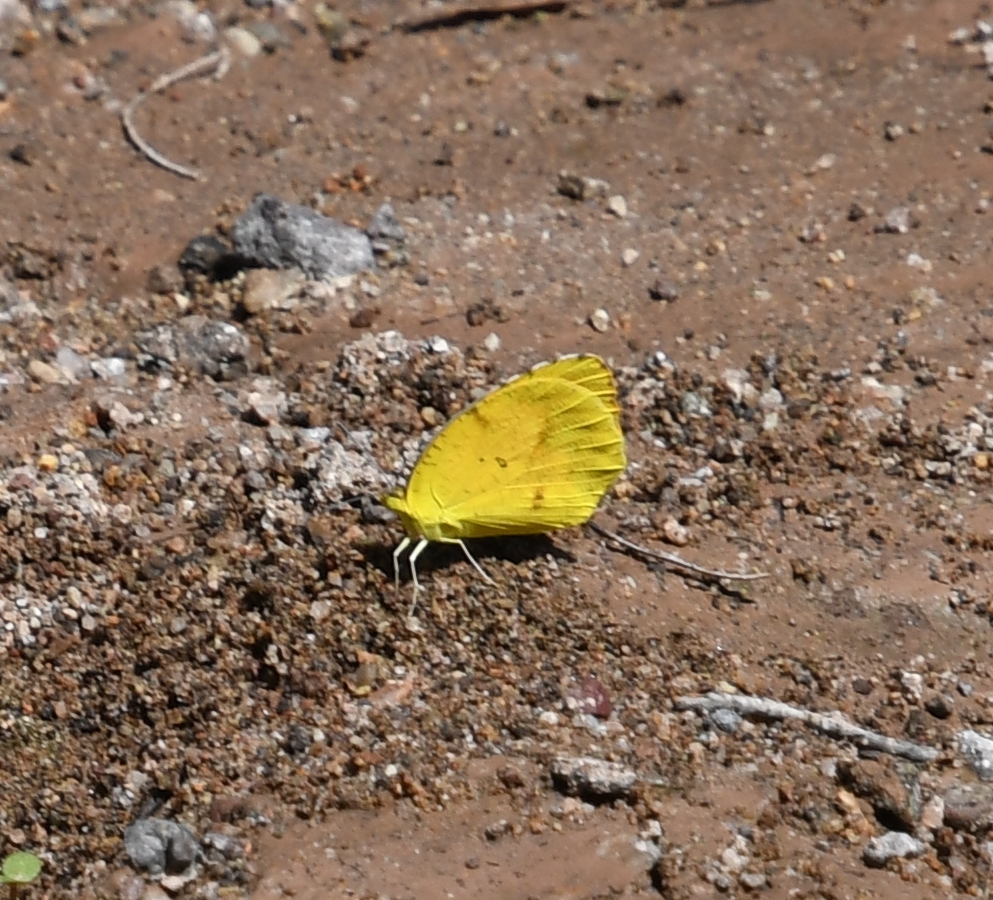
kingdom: Animalia
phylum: Arthropoda
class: Insecta
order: Lepidoptera
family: Pieridae
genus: Abaeis
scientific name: Abaeis nicippe
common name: Sleepy orange
